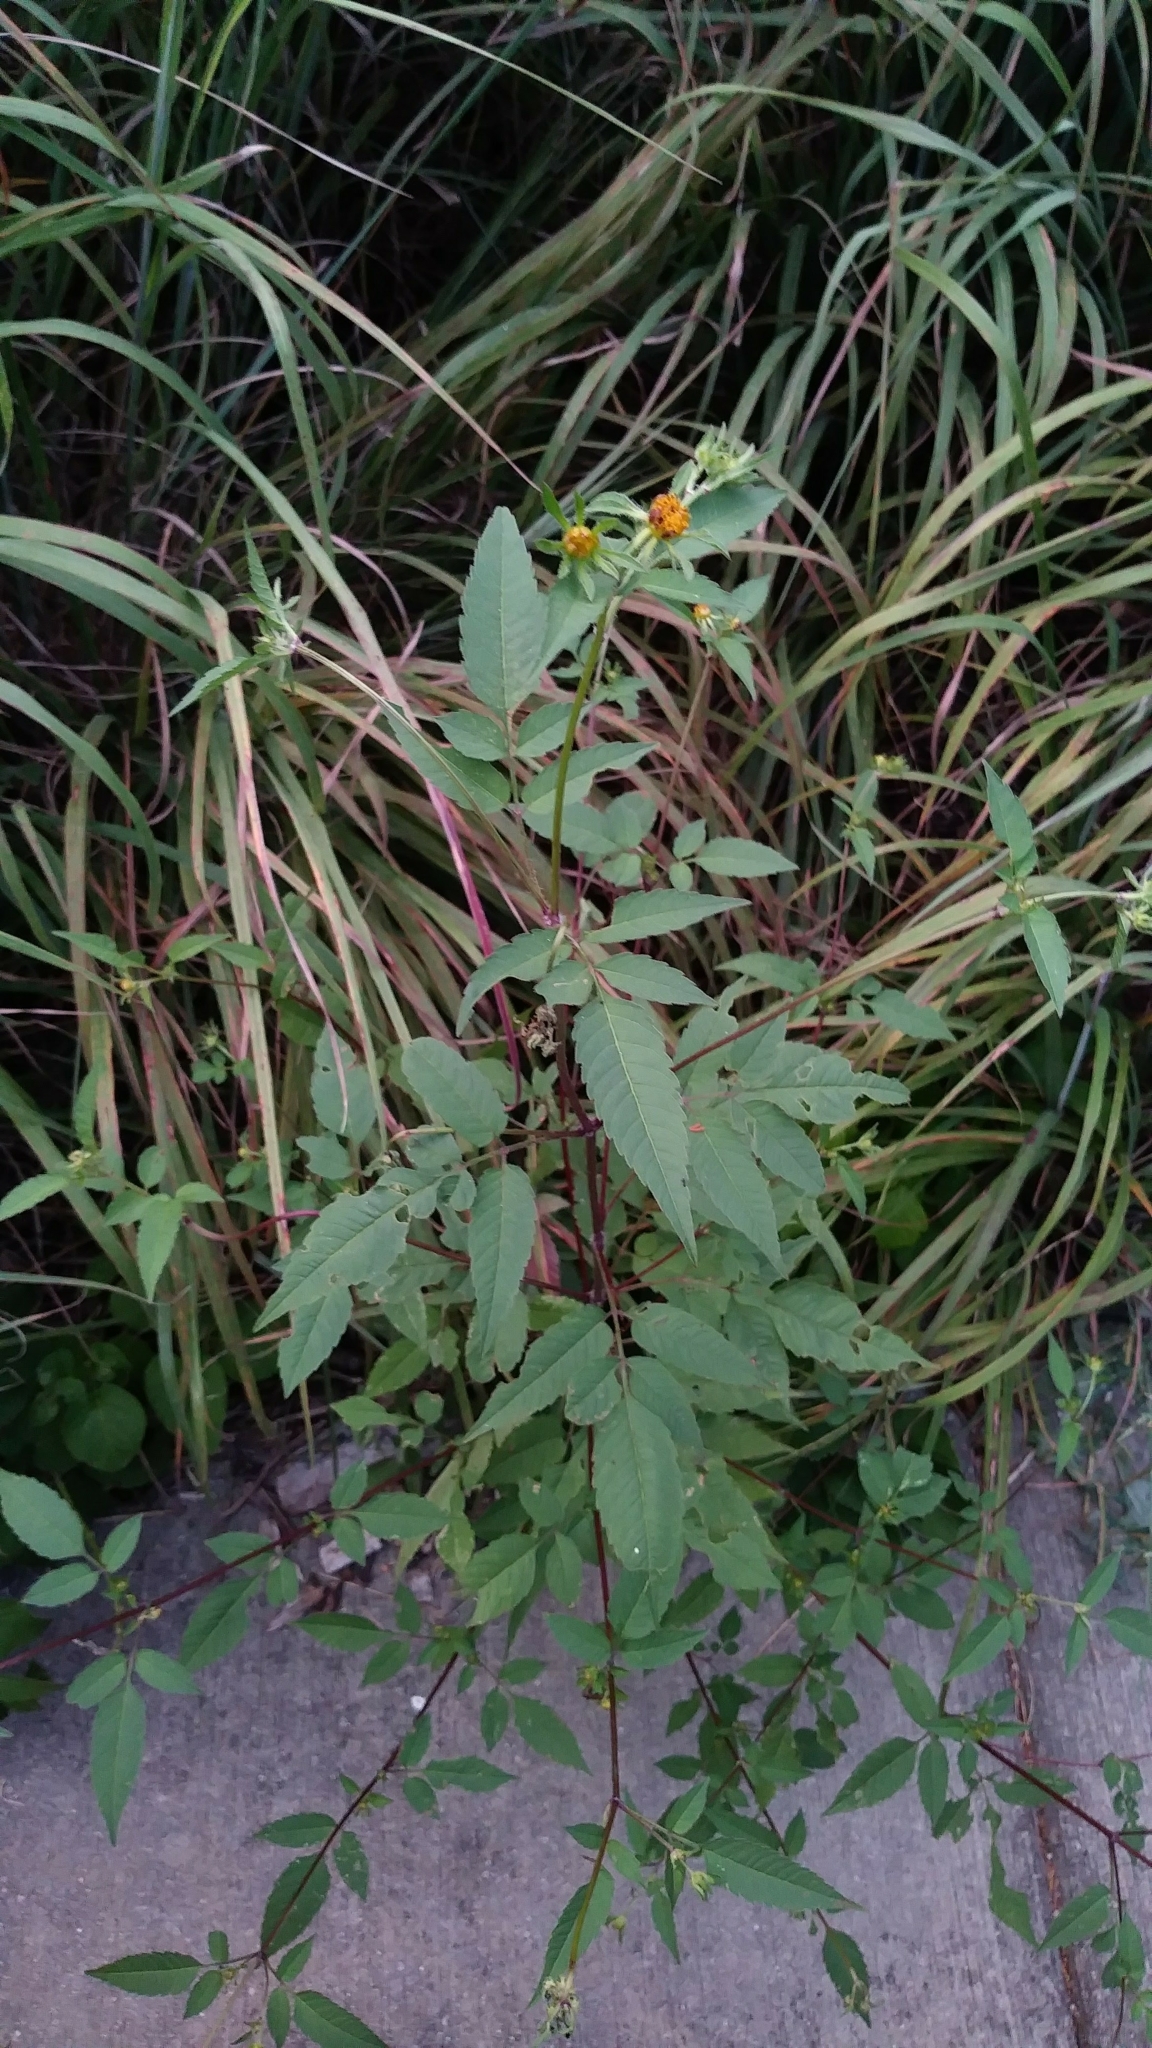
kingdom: Plantae
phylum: Tracheophyta
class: Magnoliopsida
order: Asterales
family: Asteraceae
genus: Bidens
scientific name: Bidens frondosa
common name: Beggarticks
